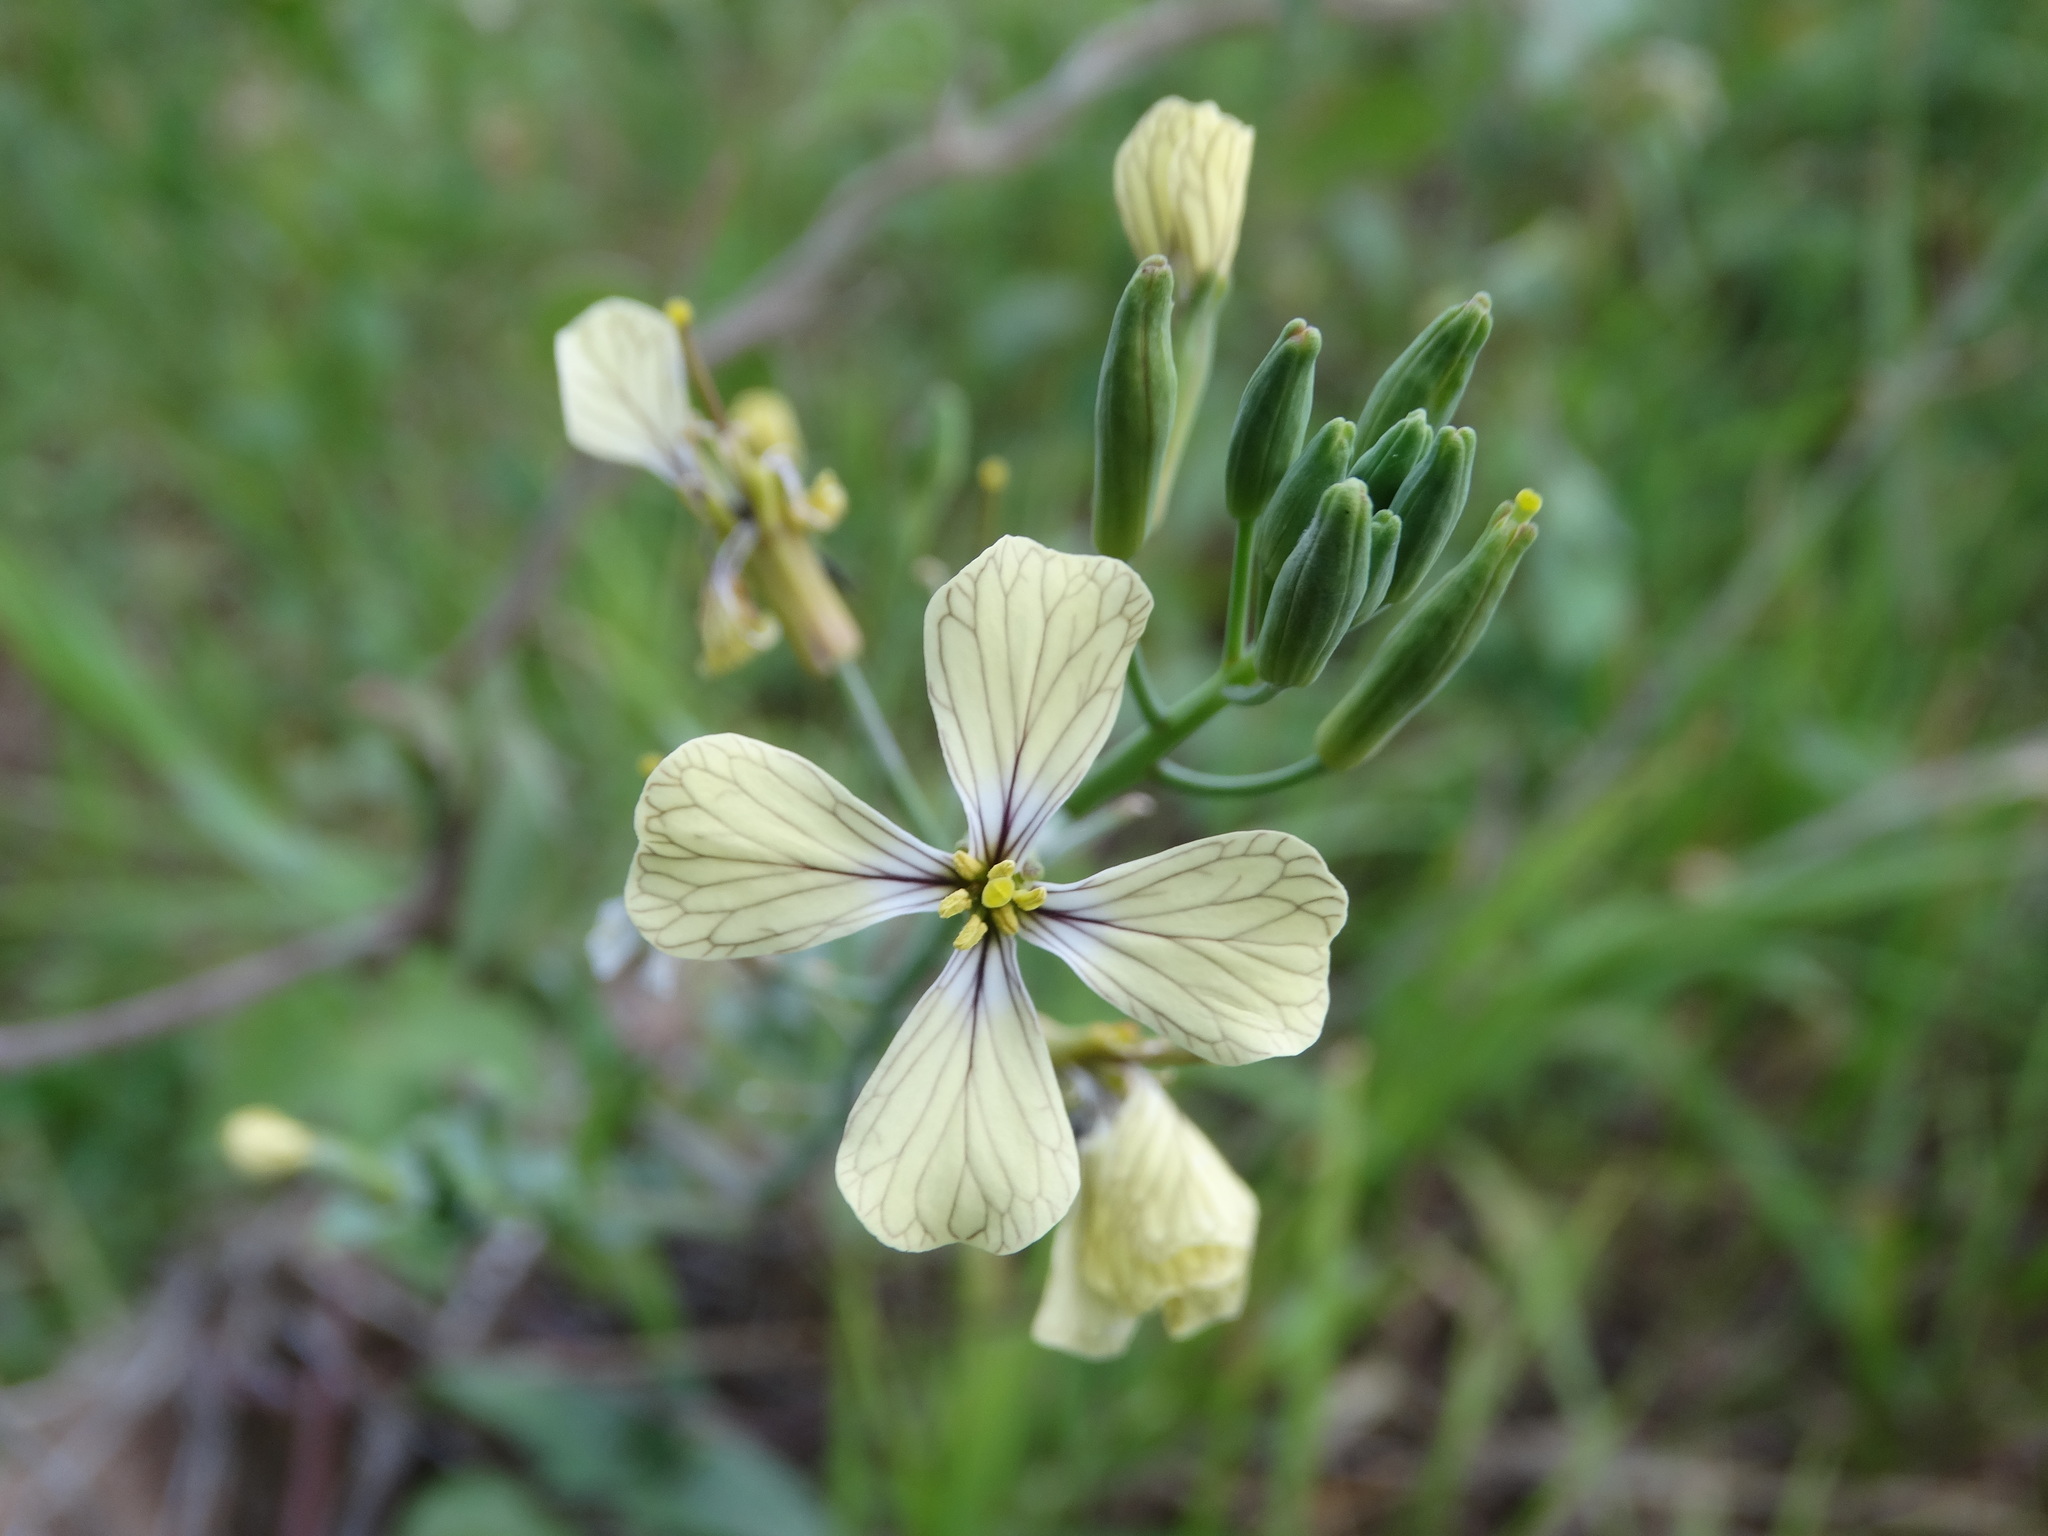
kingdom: Plantae
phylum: Tracheophyta
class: Magnoliopsida
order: Brassicales
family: Brassicaceae
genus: Raphanus
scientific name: Raphanus raphanistrum
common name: Wild radish
